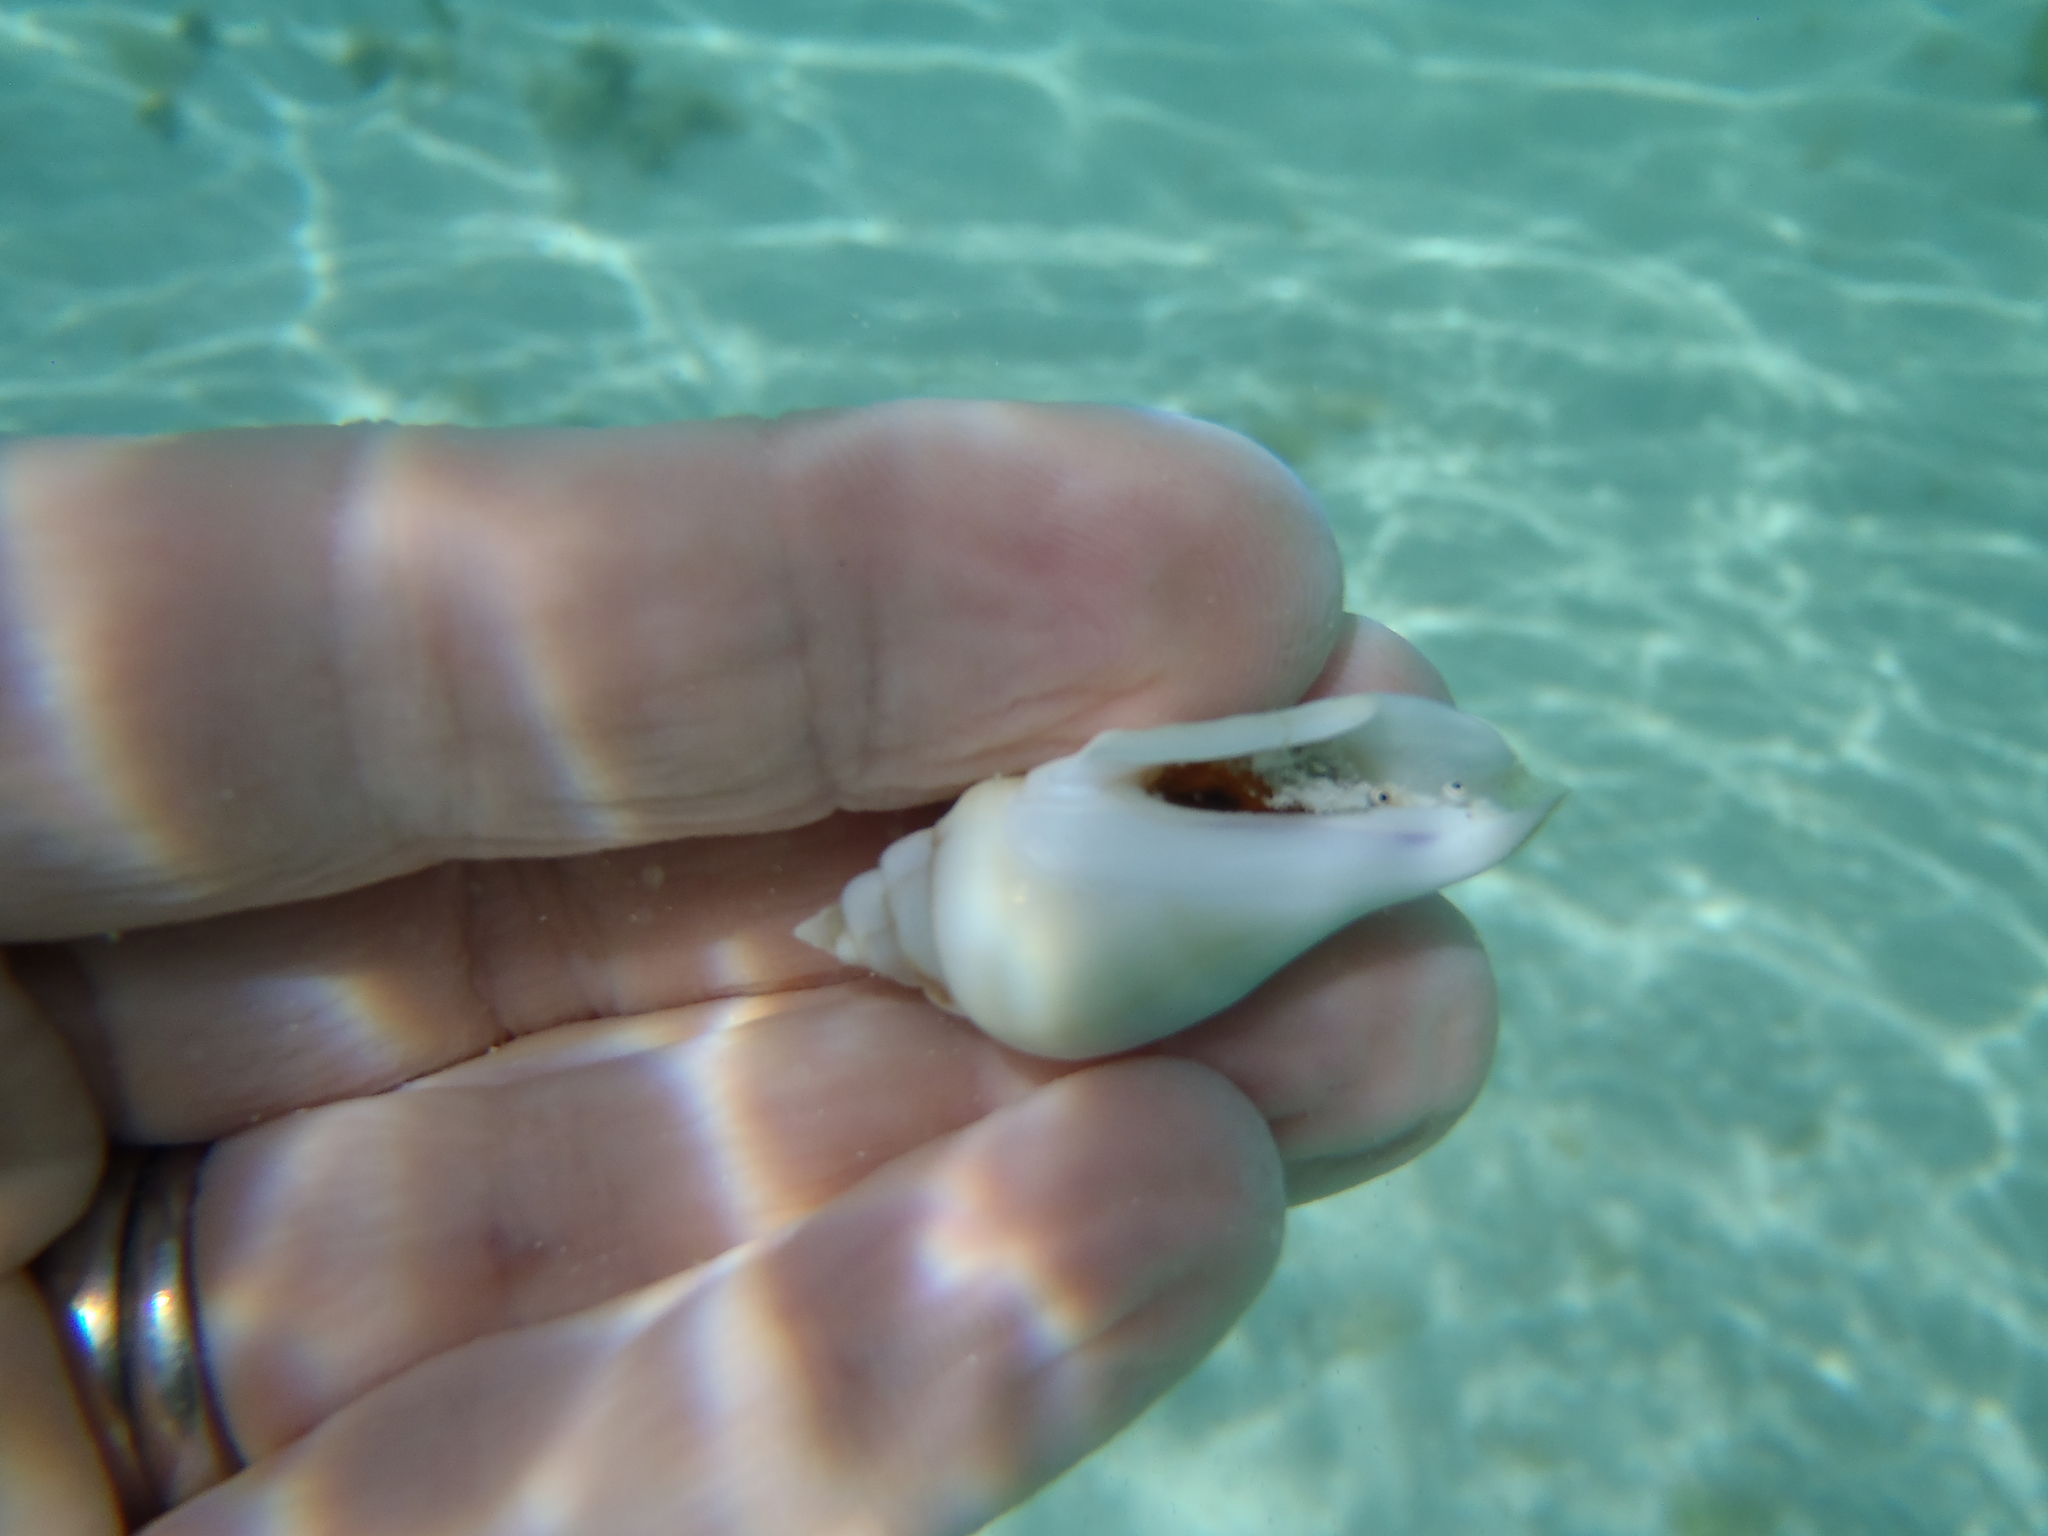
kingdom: Animalia
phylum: Mollusca
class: Gastropoda
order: Littorinimorpha
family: Strombidae
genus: Gibberulus
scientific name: Gibberulus gibberulus
